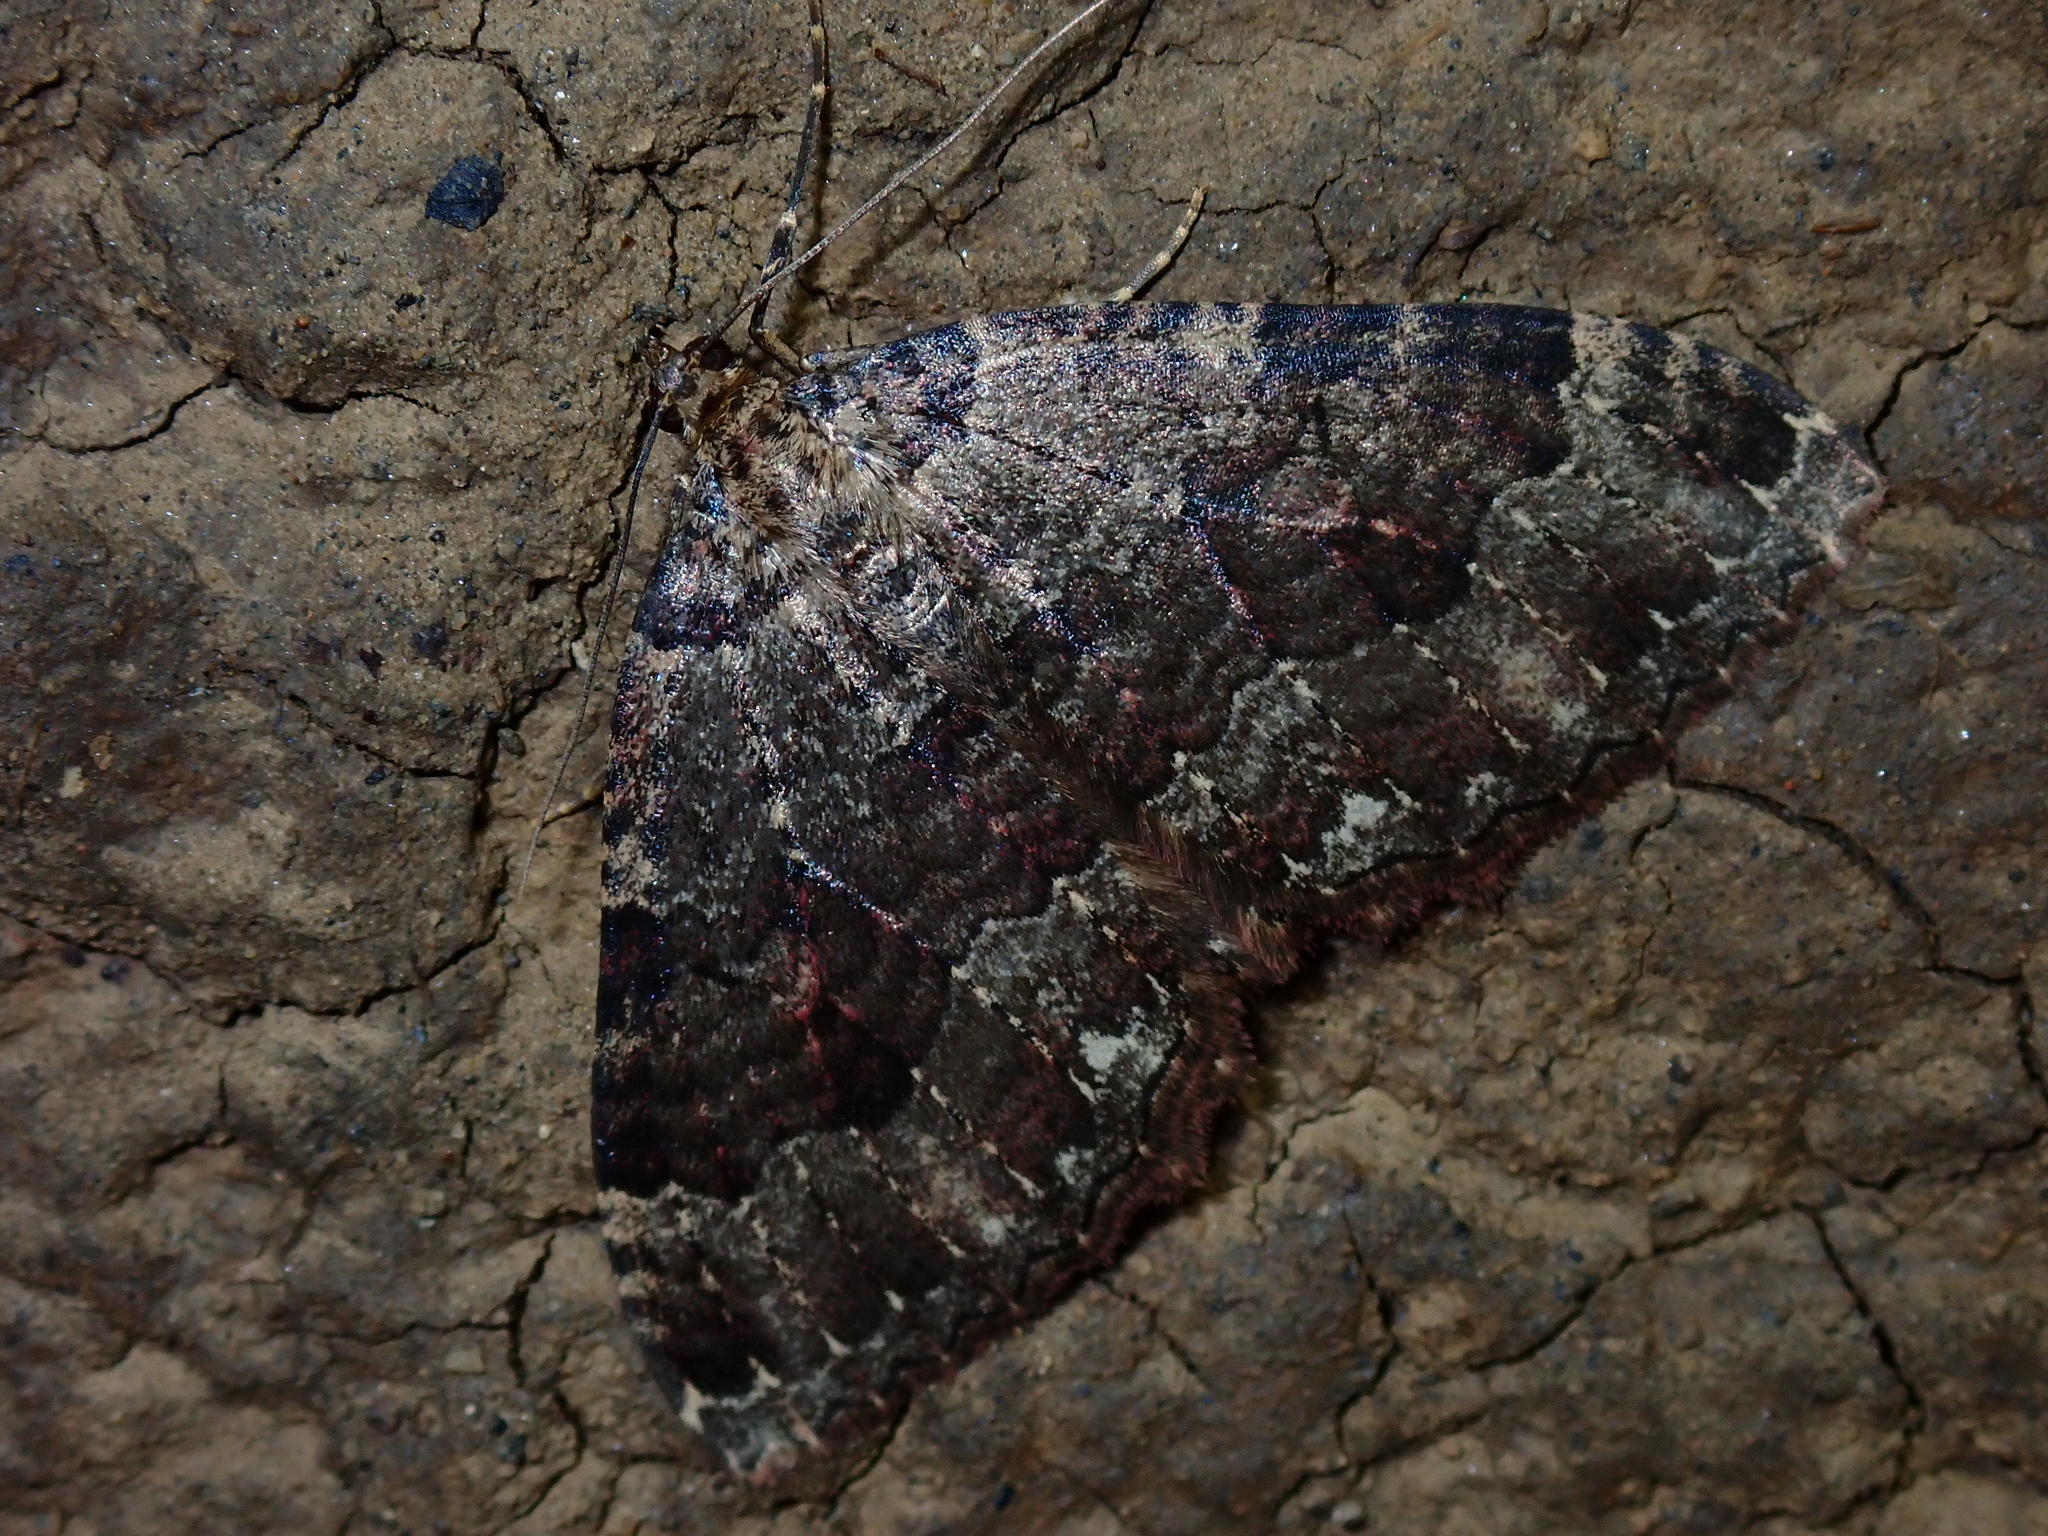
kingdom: Animalia
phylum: Arthropoda
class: Insecta
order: Lepidoptera
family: Geometridae
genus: Triphosa
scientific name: Triphosa dubitata
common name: Tissue
